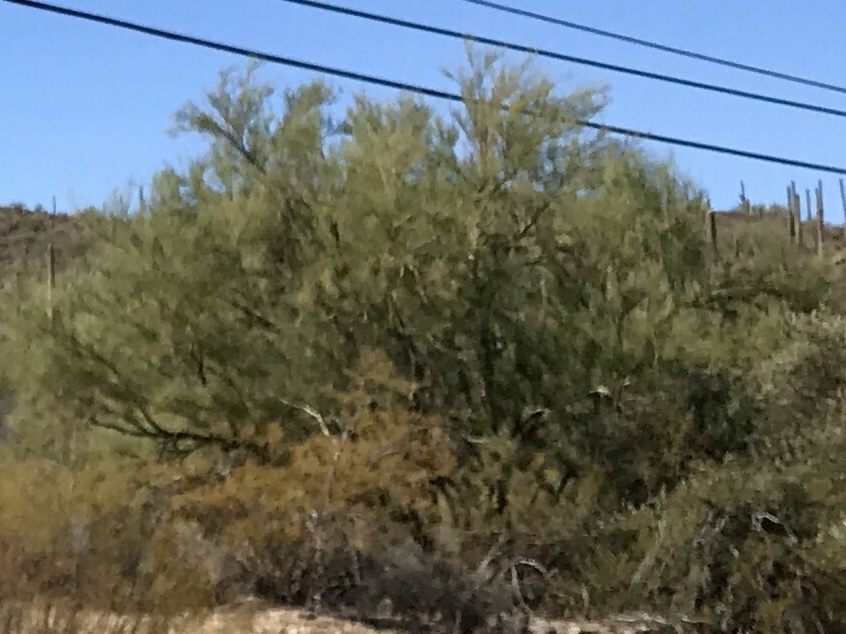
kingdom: Plantae
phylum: Tracheophyta
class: Magnoliopsida
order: Fabales
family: Fabaceae
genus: Parkinsonia
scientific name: Parkinsonia microphylla
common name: Yellow paloverde
